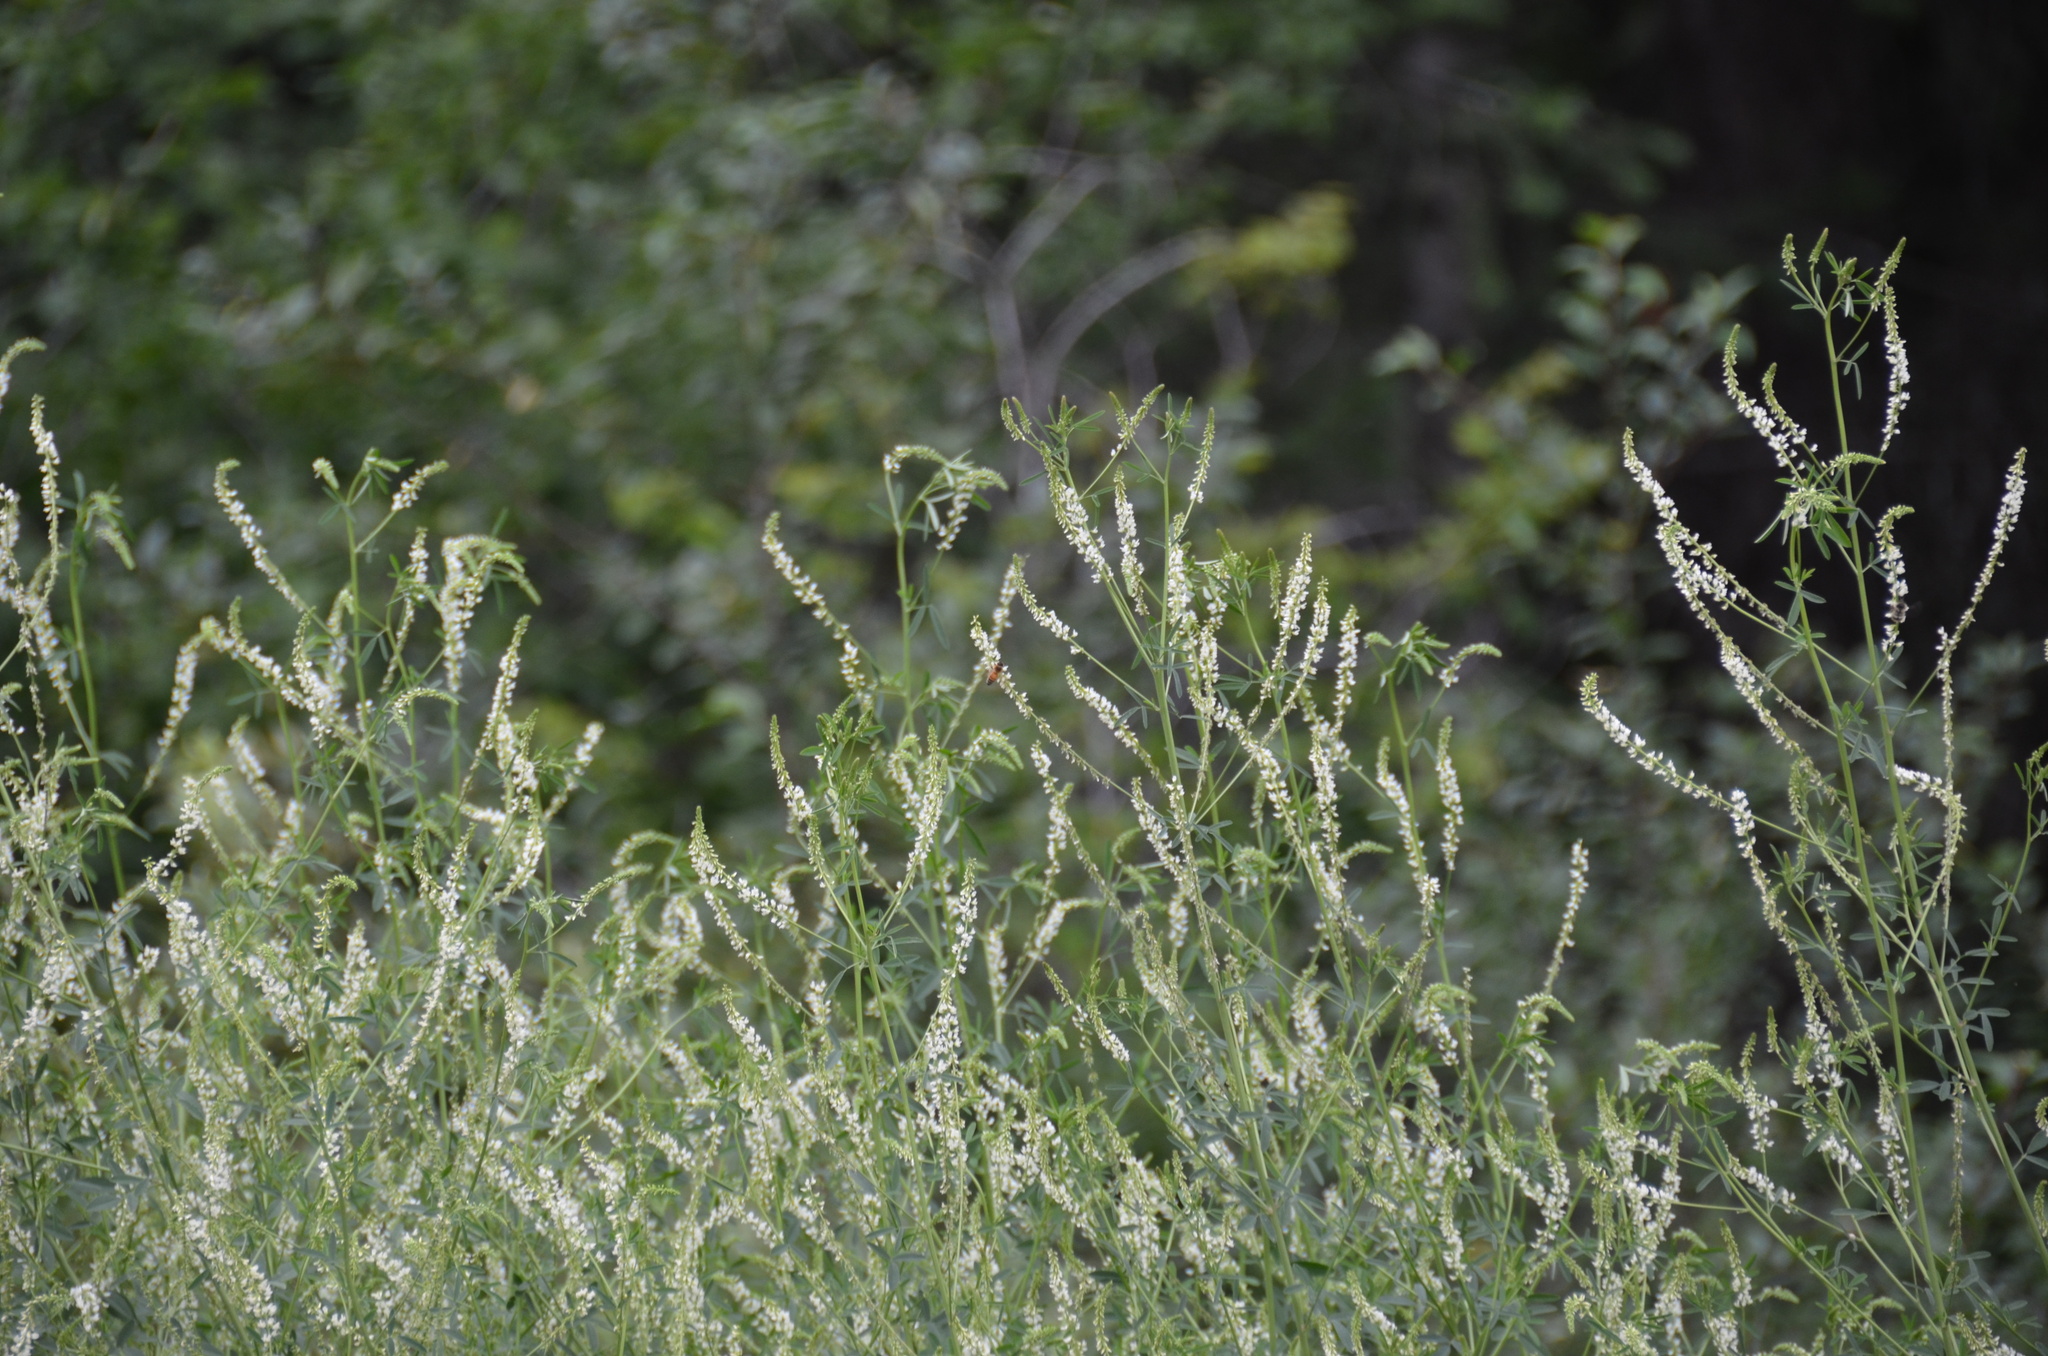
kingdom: Animalia
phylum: Arthropoda
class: Insecta
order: Hymenoptera
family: Apidae
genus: Apis
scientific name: Apis mellifera
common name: Honey bee
